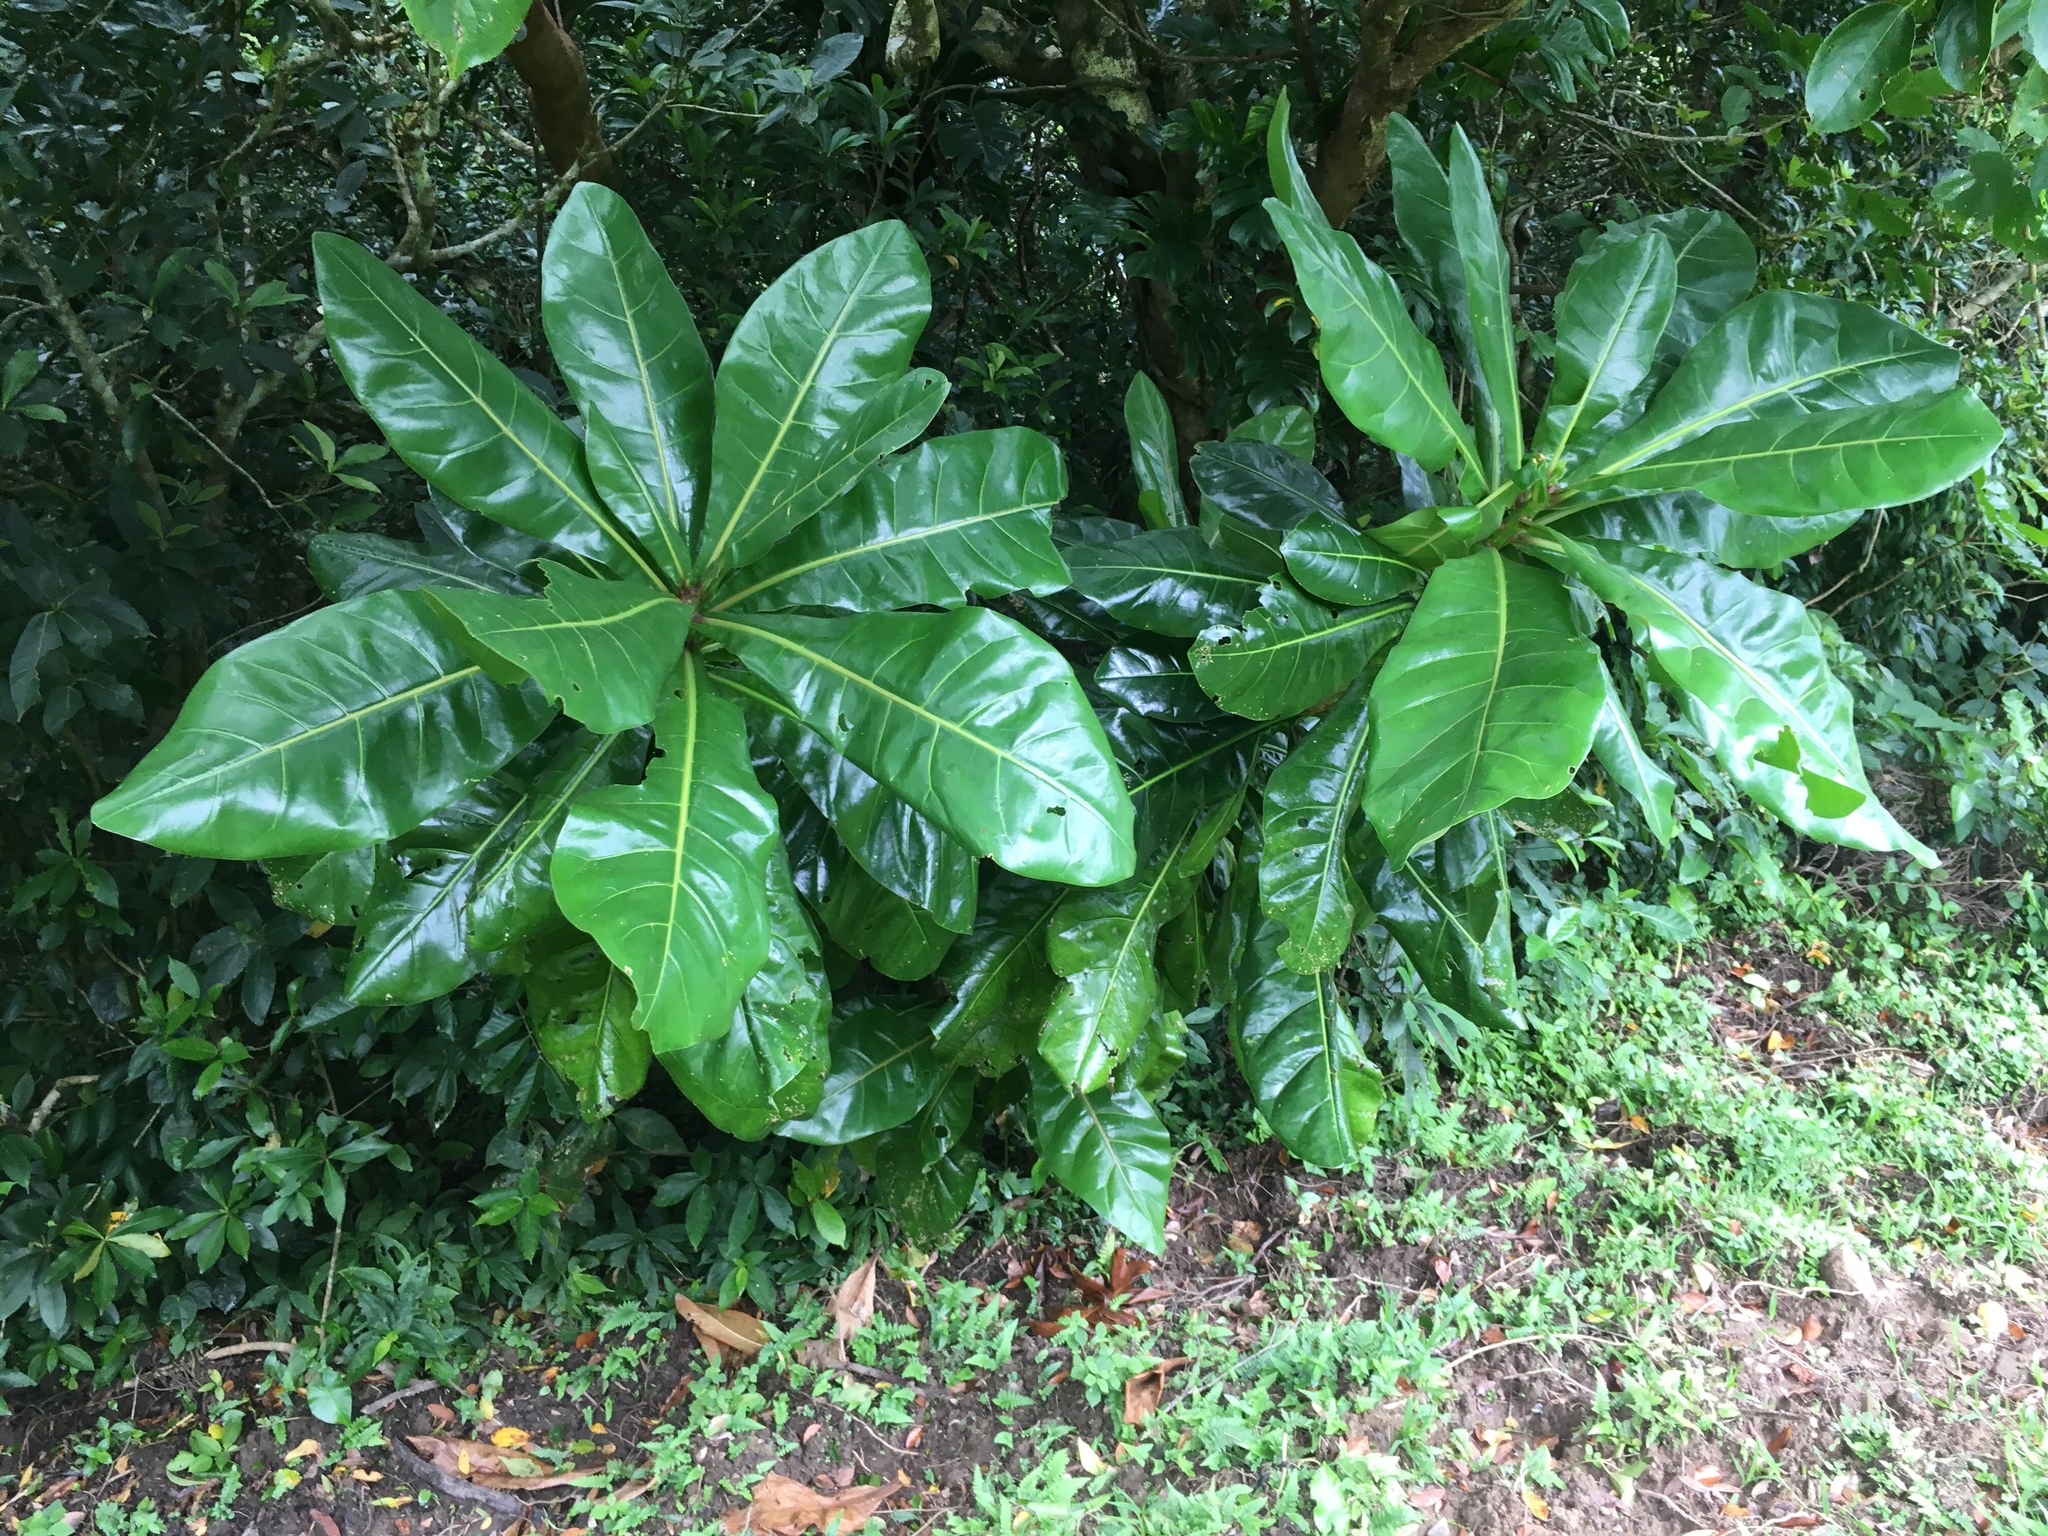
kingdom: Plantae
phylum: Tracheophyta
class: Magnoliopsida
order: Ericales
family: Lecythidaceae
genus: Barringtonia
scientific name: Barringtonia asiatica
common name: Mango-pine
